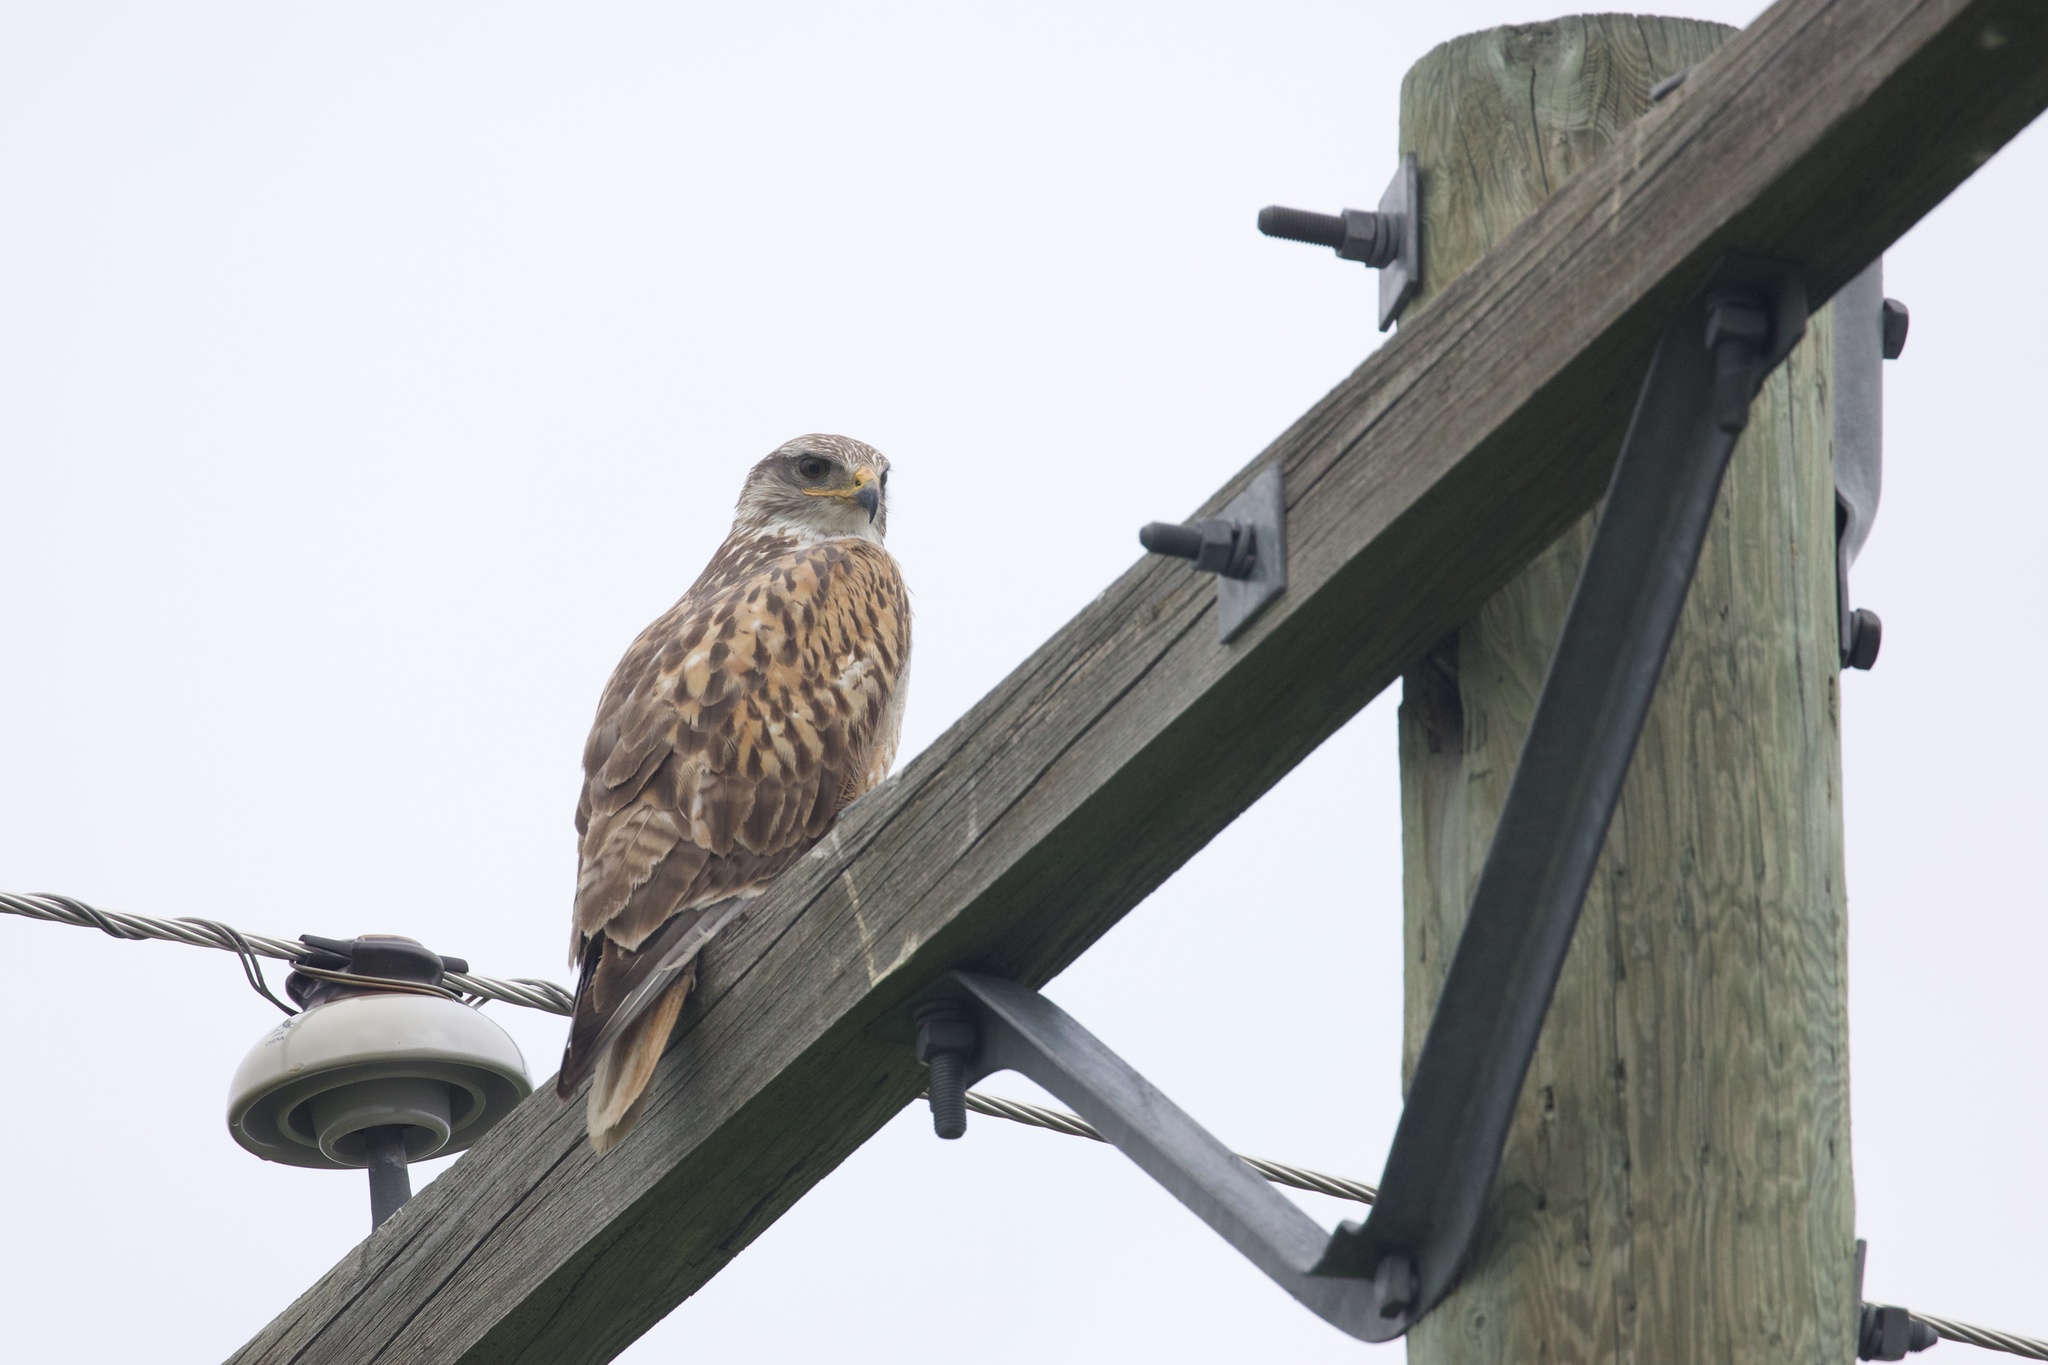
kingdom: Animalia
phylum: Chordata
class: Aves
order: Accipitriformes
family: Accipitridae
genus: Buteo
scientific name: Buteo regalis
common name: Ferruginous hawk
